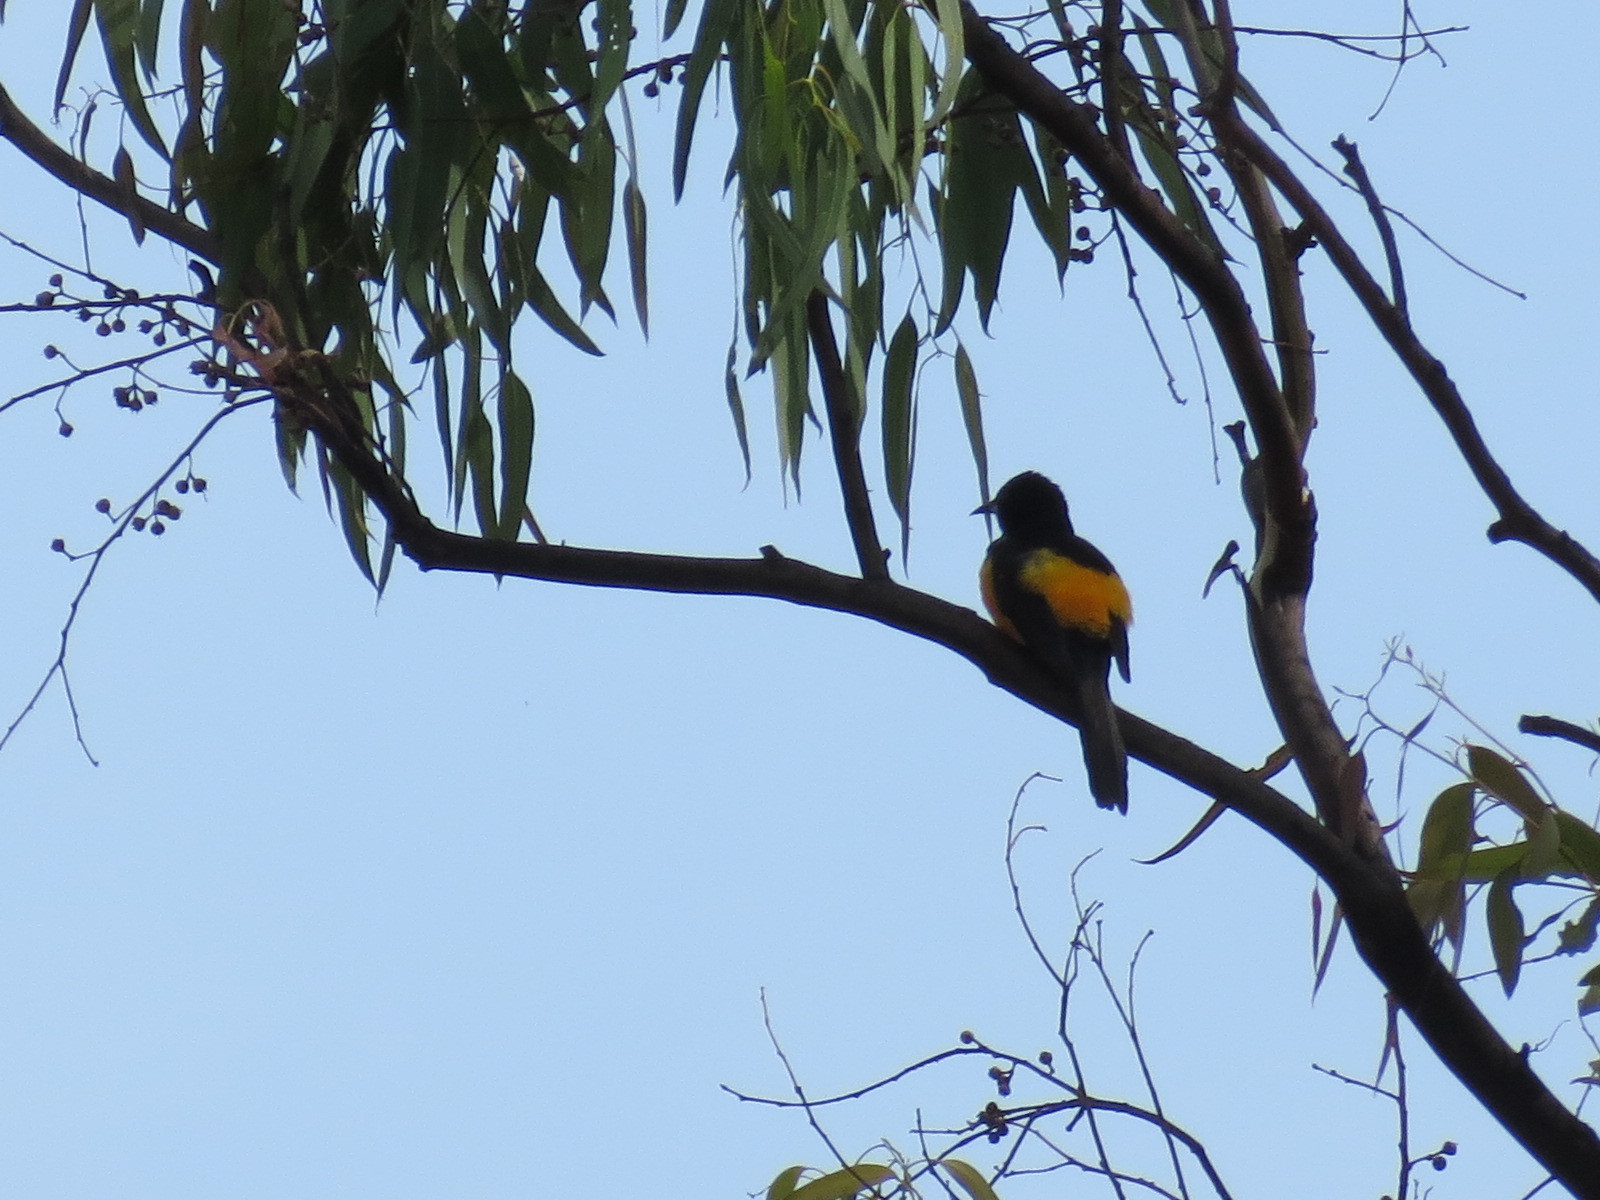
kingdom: Animalia
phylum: Chordata
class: Aves
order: Passeriformes
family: Icteridae
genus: Icterus
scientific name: Icterus wagleri
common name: Black-vented oriole
